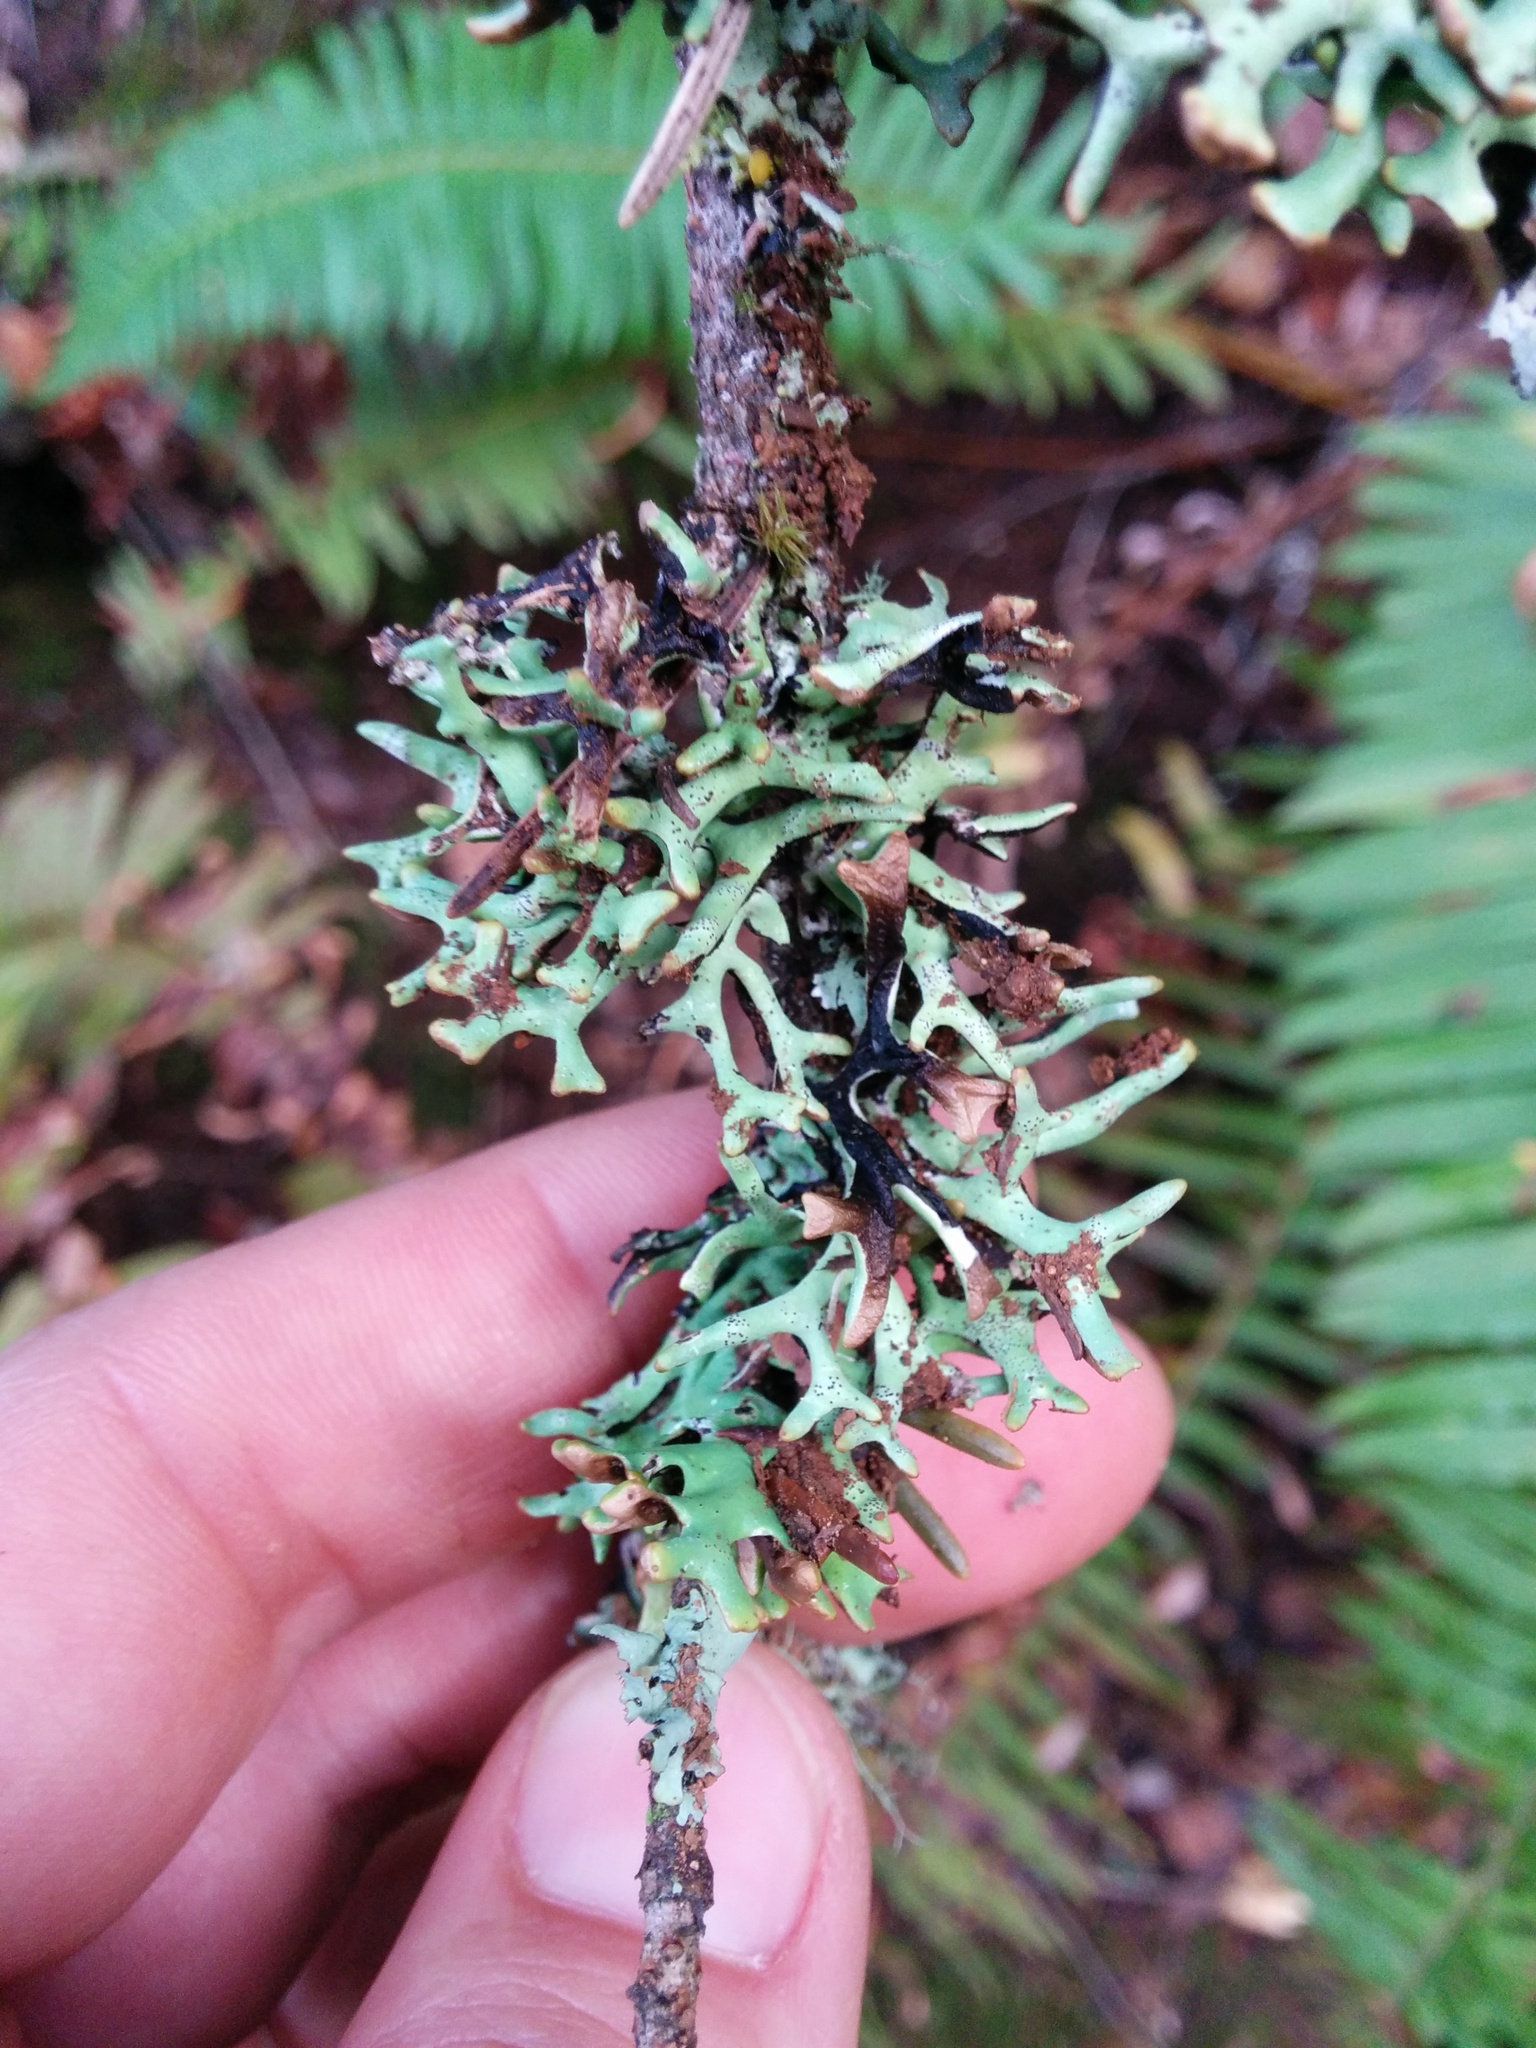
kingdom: Fungi
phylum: Ascomycota
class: Lecanoromycetes
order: Lecanorales
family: Parmeliaceae
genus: Hypogymnia
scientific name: Hypogymnia imshaugii
